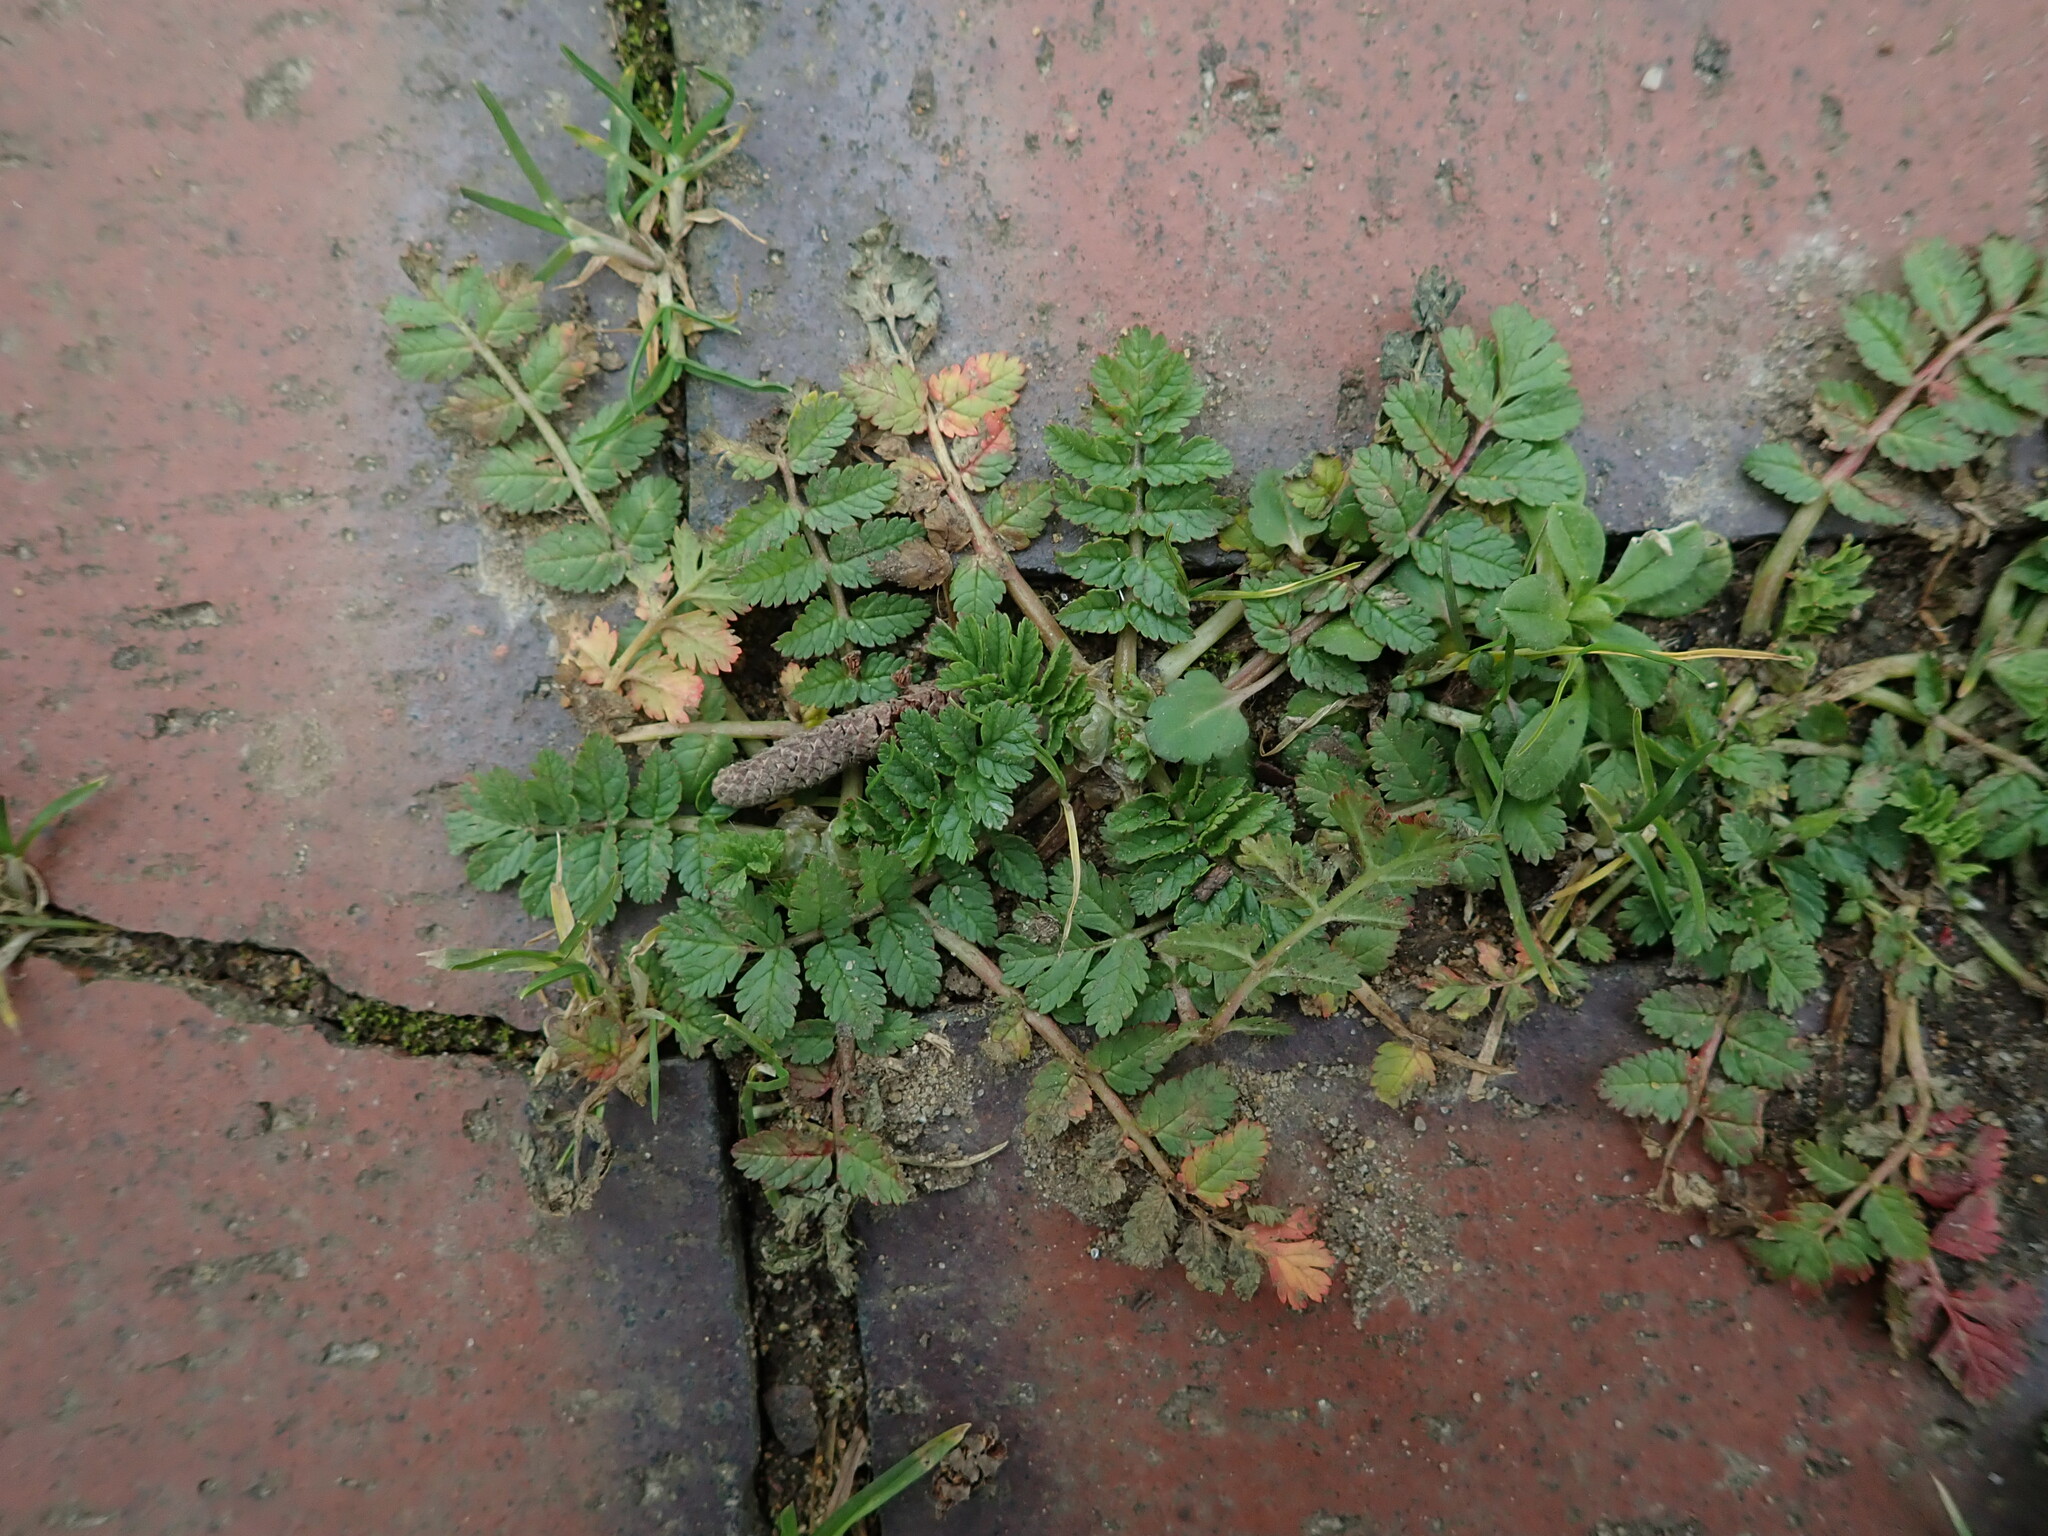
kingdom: Plantae
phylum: Tracheophyta
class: Magnoliopsida
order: Geraniales
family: Geraniaceae
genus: Erodium
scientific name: Erodium moschatum
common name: Musk stork's-bill
